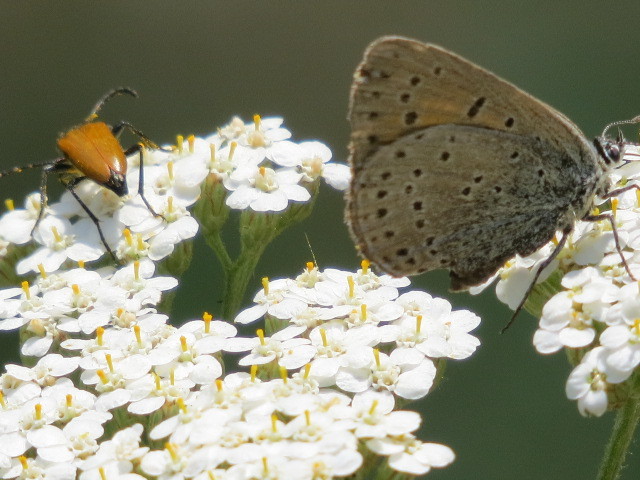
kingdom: Animalia
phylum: Arthropoda
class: Insecta
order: Lepidoptera
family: Lycaenidae
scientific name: Lycaenidae
